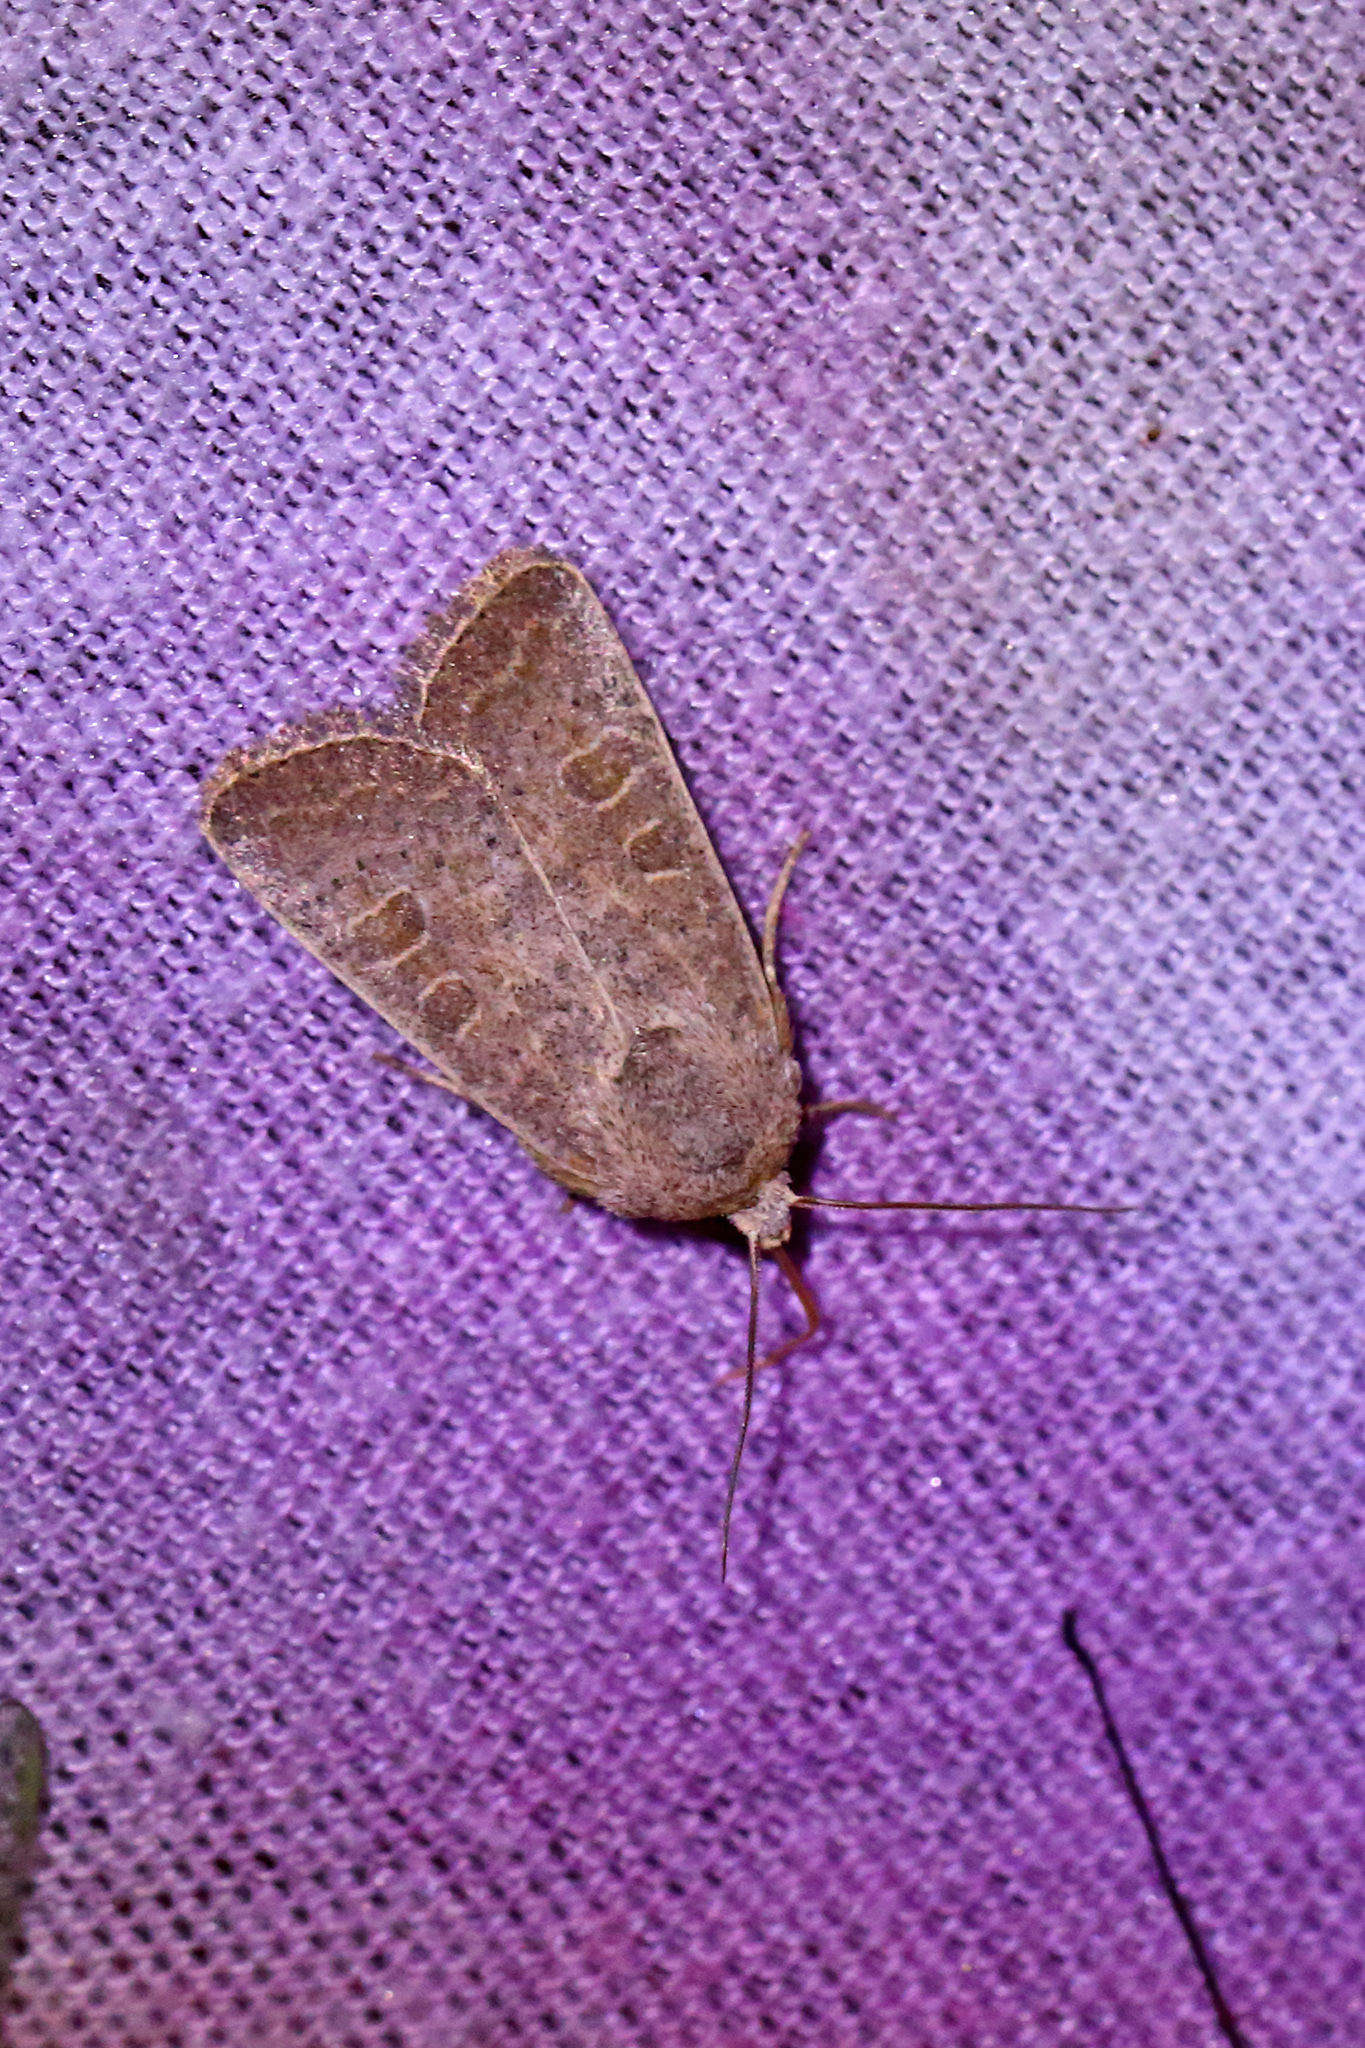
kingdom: Animalia
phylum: Arthropoda
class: Insecta
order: Lepidoptera
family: Noctuidae
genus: Hoplodrina
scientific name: Hoplodrina ambigua
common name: Vine's rustic
